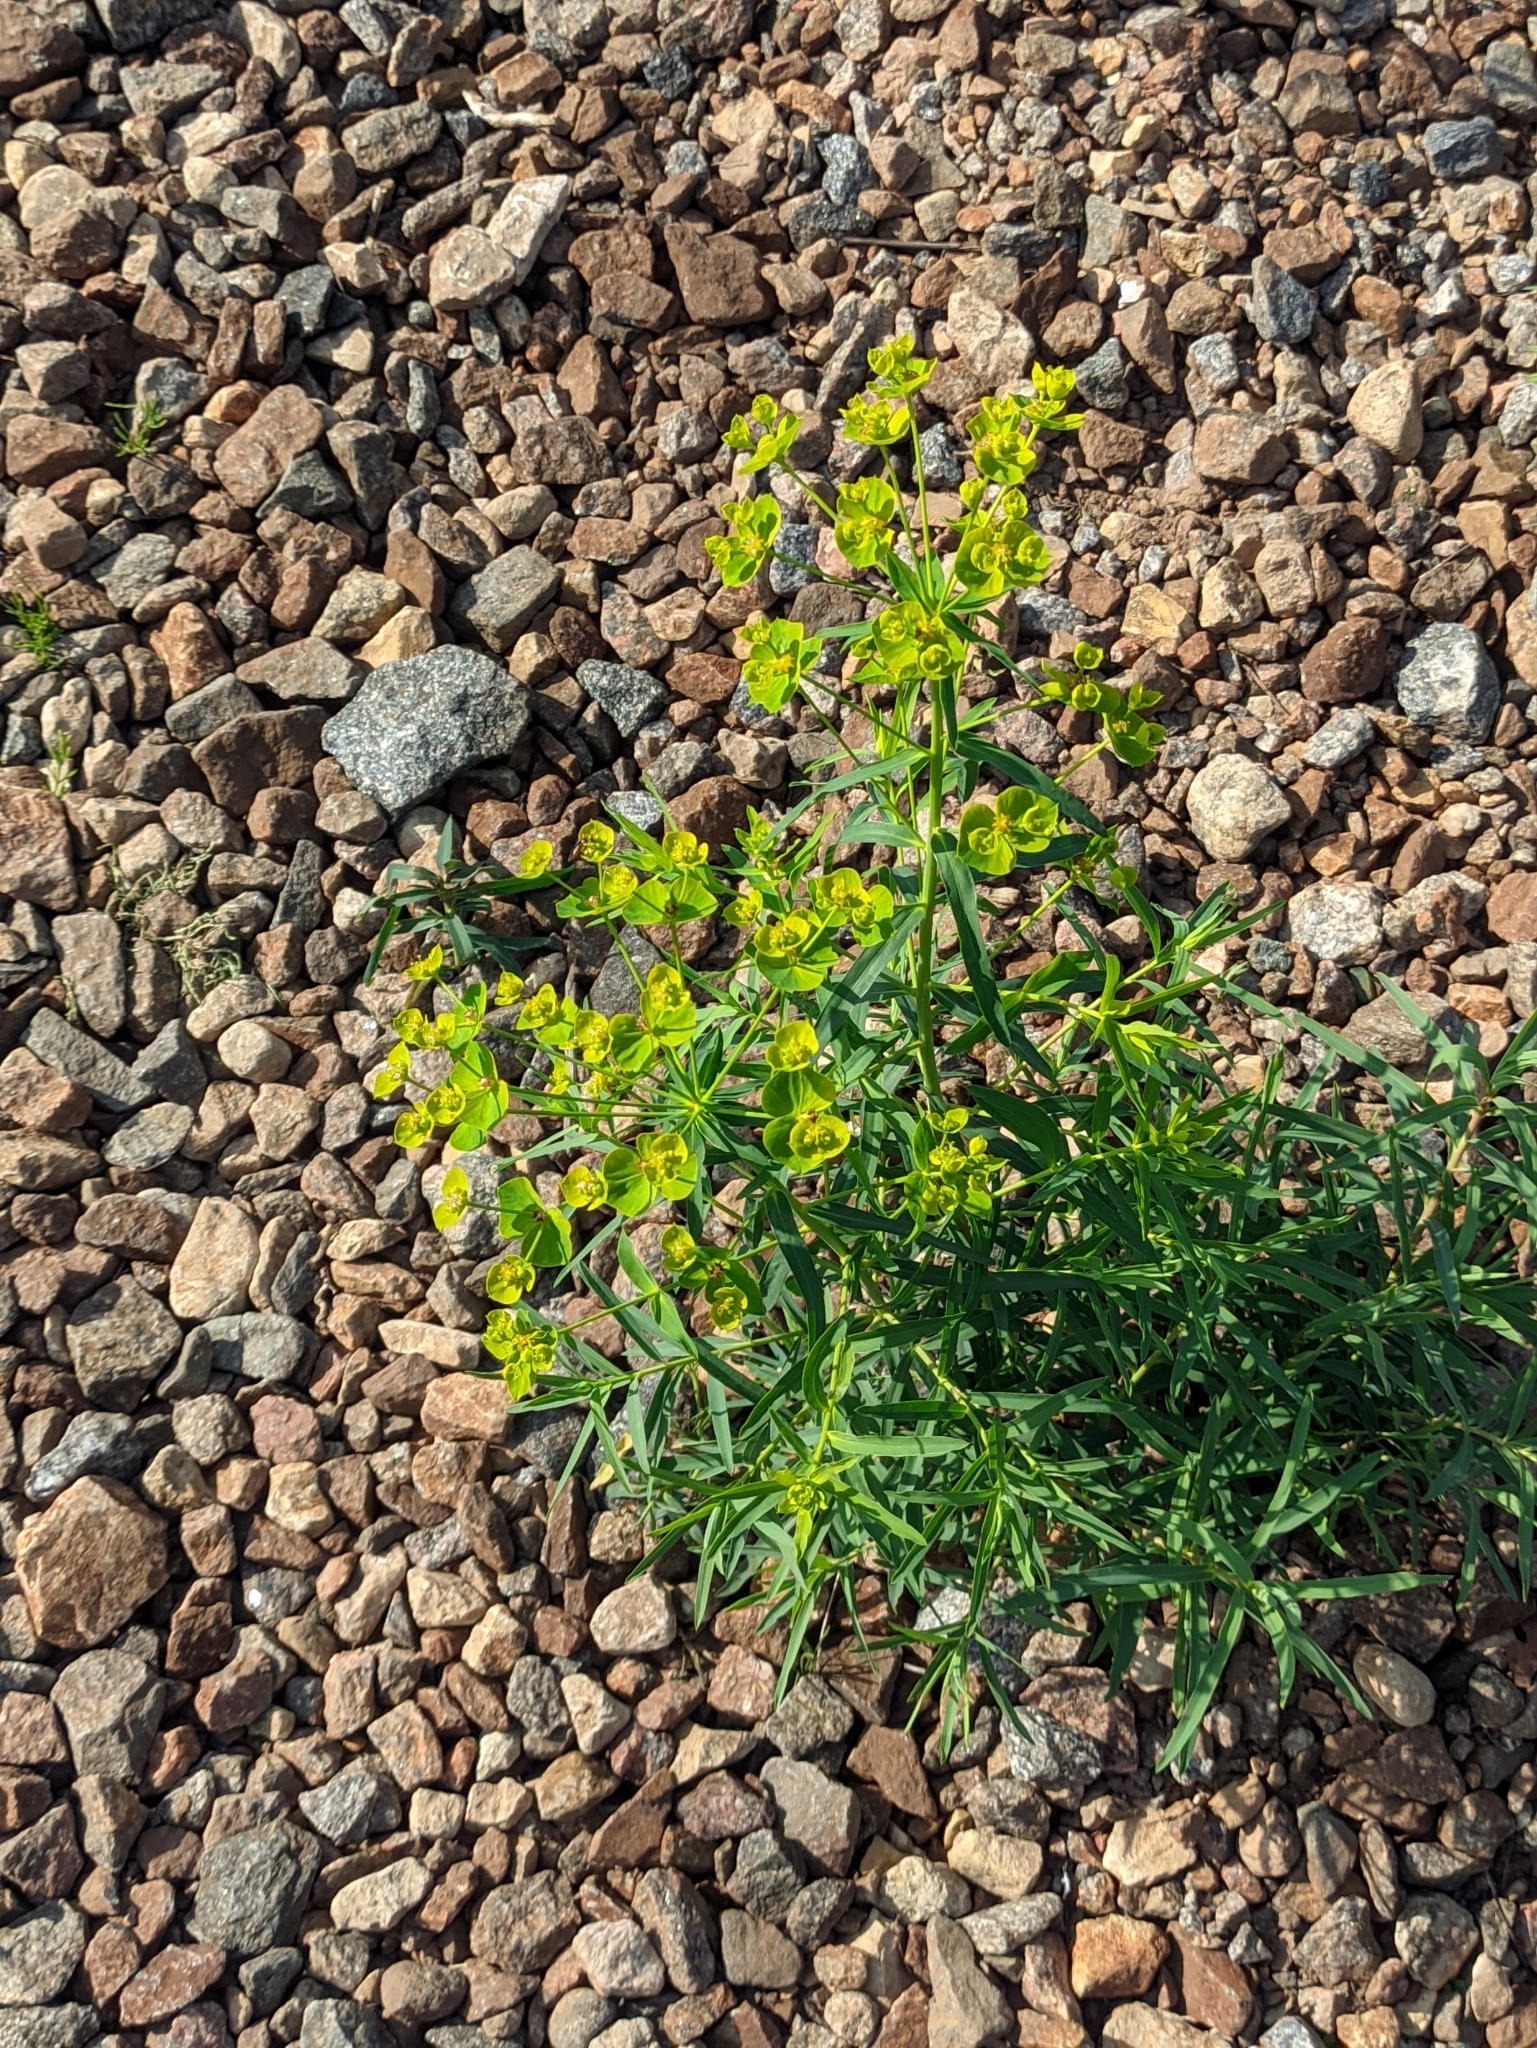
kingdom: Plantae
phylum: Tracheophyta
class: Magnoliopsida
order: Malpighiales
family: Euphorbiaceae
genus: Euphorbia
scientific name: Euphorbia virgata
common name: Leafy spurge
